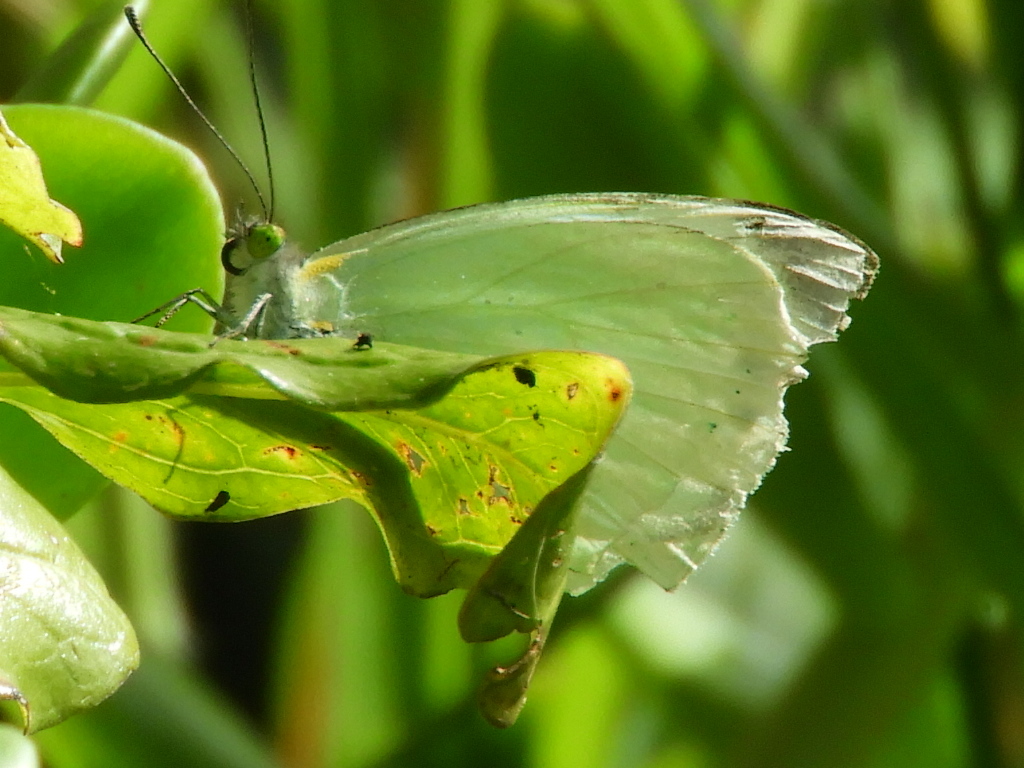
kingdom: Animalia
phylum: Arthropoda
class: Insecta
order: Lepidoptera
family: Pieridae
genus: Leptophobia
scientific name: Leptophobia aripa
